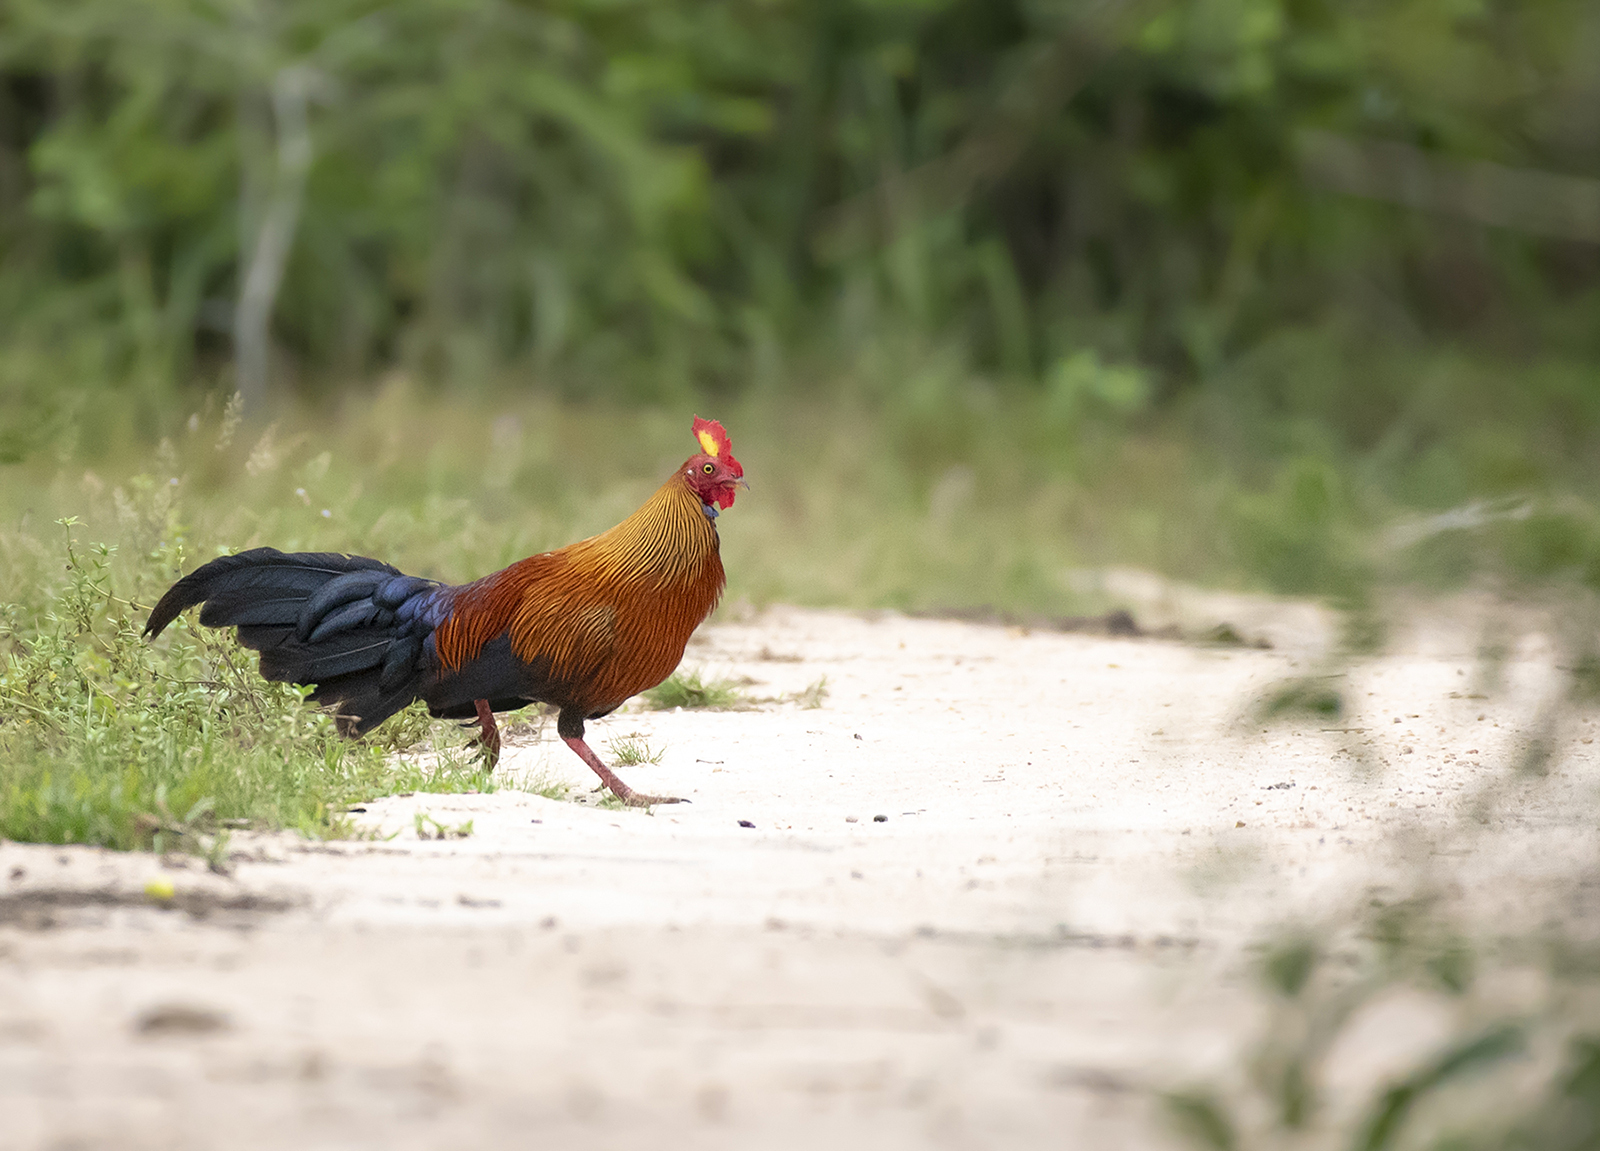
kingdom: Animalia
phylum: Chordata
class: Aves
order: Galliformes
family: Phasianidae
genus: Gallus
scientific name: Gallus lafayettii
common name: Sri lanka junglefowl
